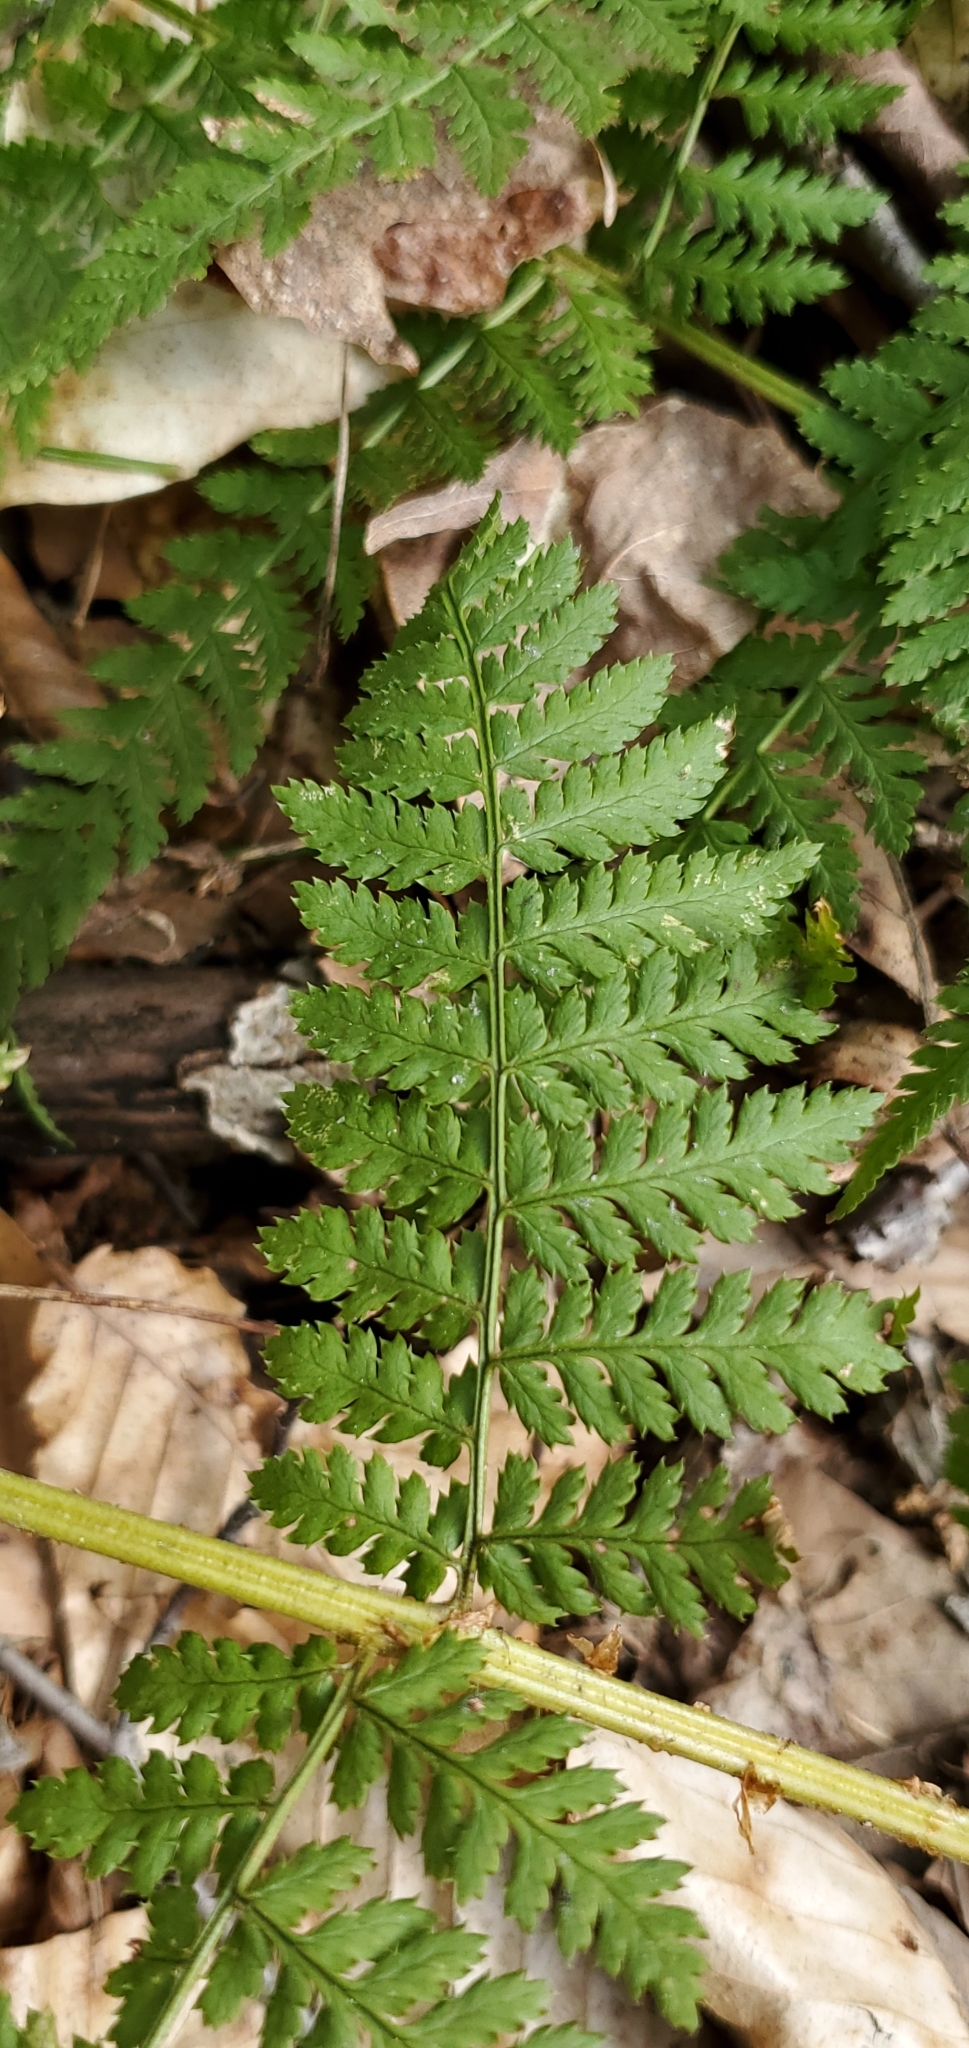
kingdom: Plantae
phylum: Tracheophyta
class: Polypodiopsida
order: Polypodiales
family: Dryopteridaceae
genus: Dryopteris
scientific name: Dryopteris intermedia
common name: Evergreen wood fern
